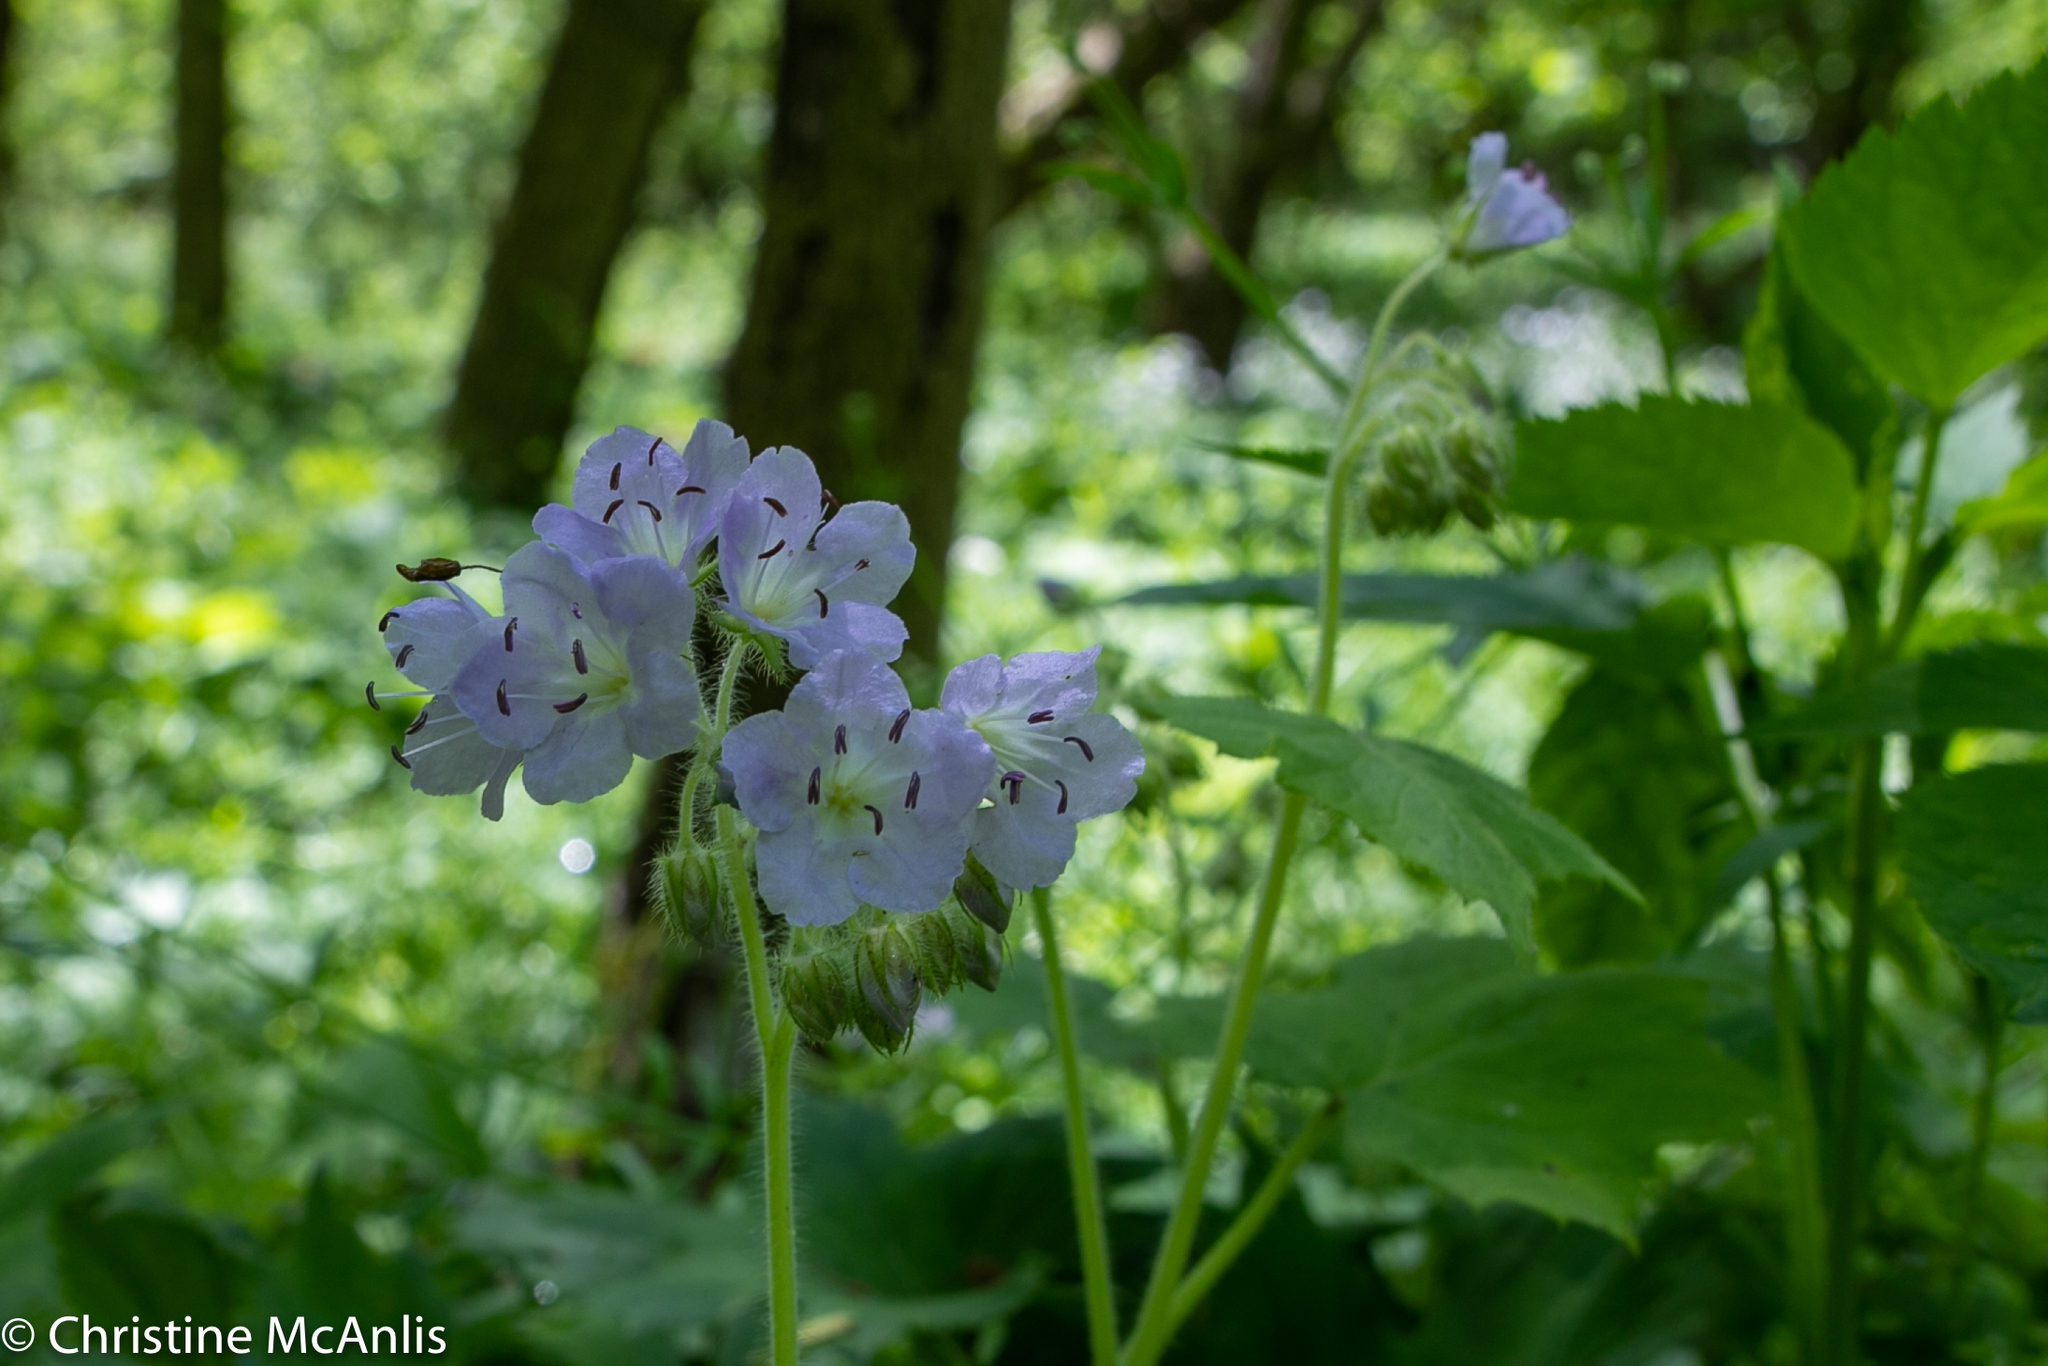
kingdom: Plantae
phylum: Tracheophyta
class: Magnoliopsida
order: Boraginales
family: Hydrophyllaceae
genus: Hydrophyllum
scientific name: Hydrophyllum appendiculatum
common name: Appendaged waterleaf
